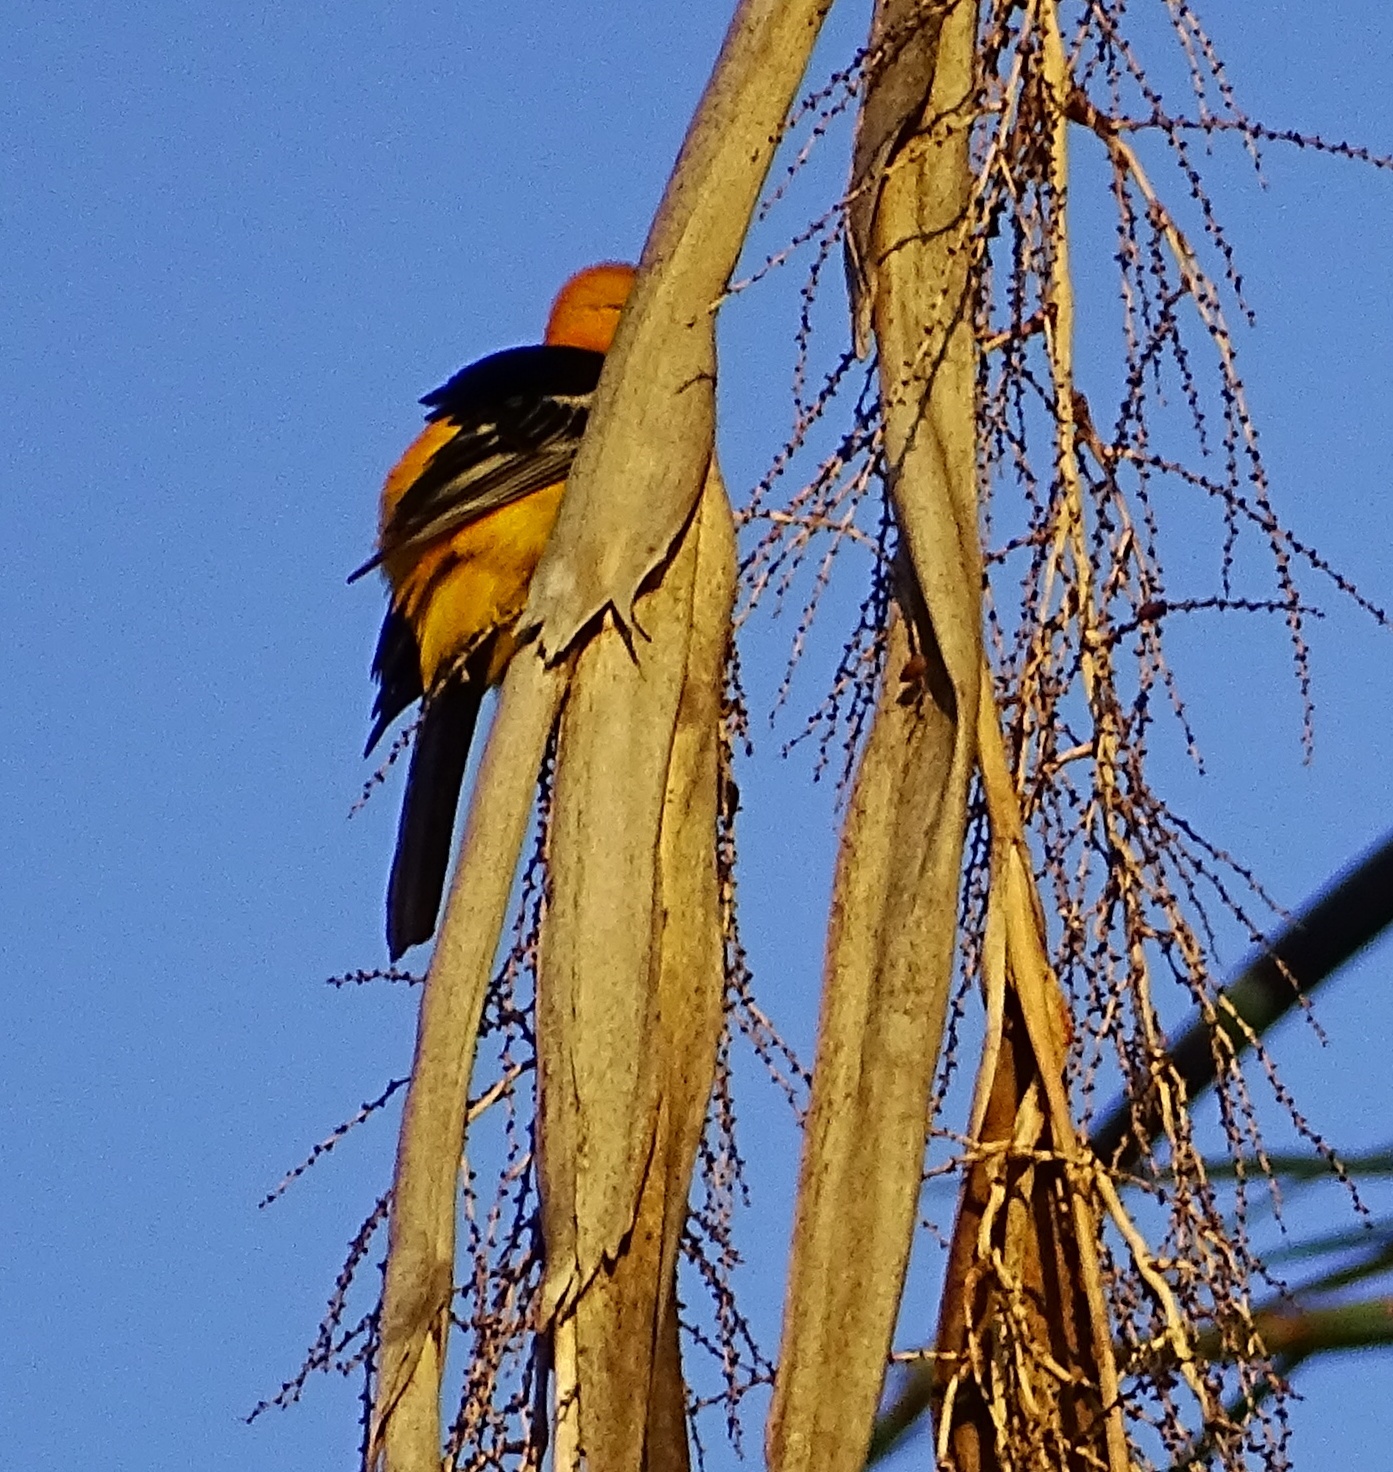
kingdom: Animalia
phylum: Chordata
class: Aves
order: Passeriformes
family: Icteridae
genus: Icterus
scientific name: Icterus cucullatus
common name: Hooded oriole
